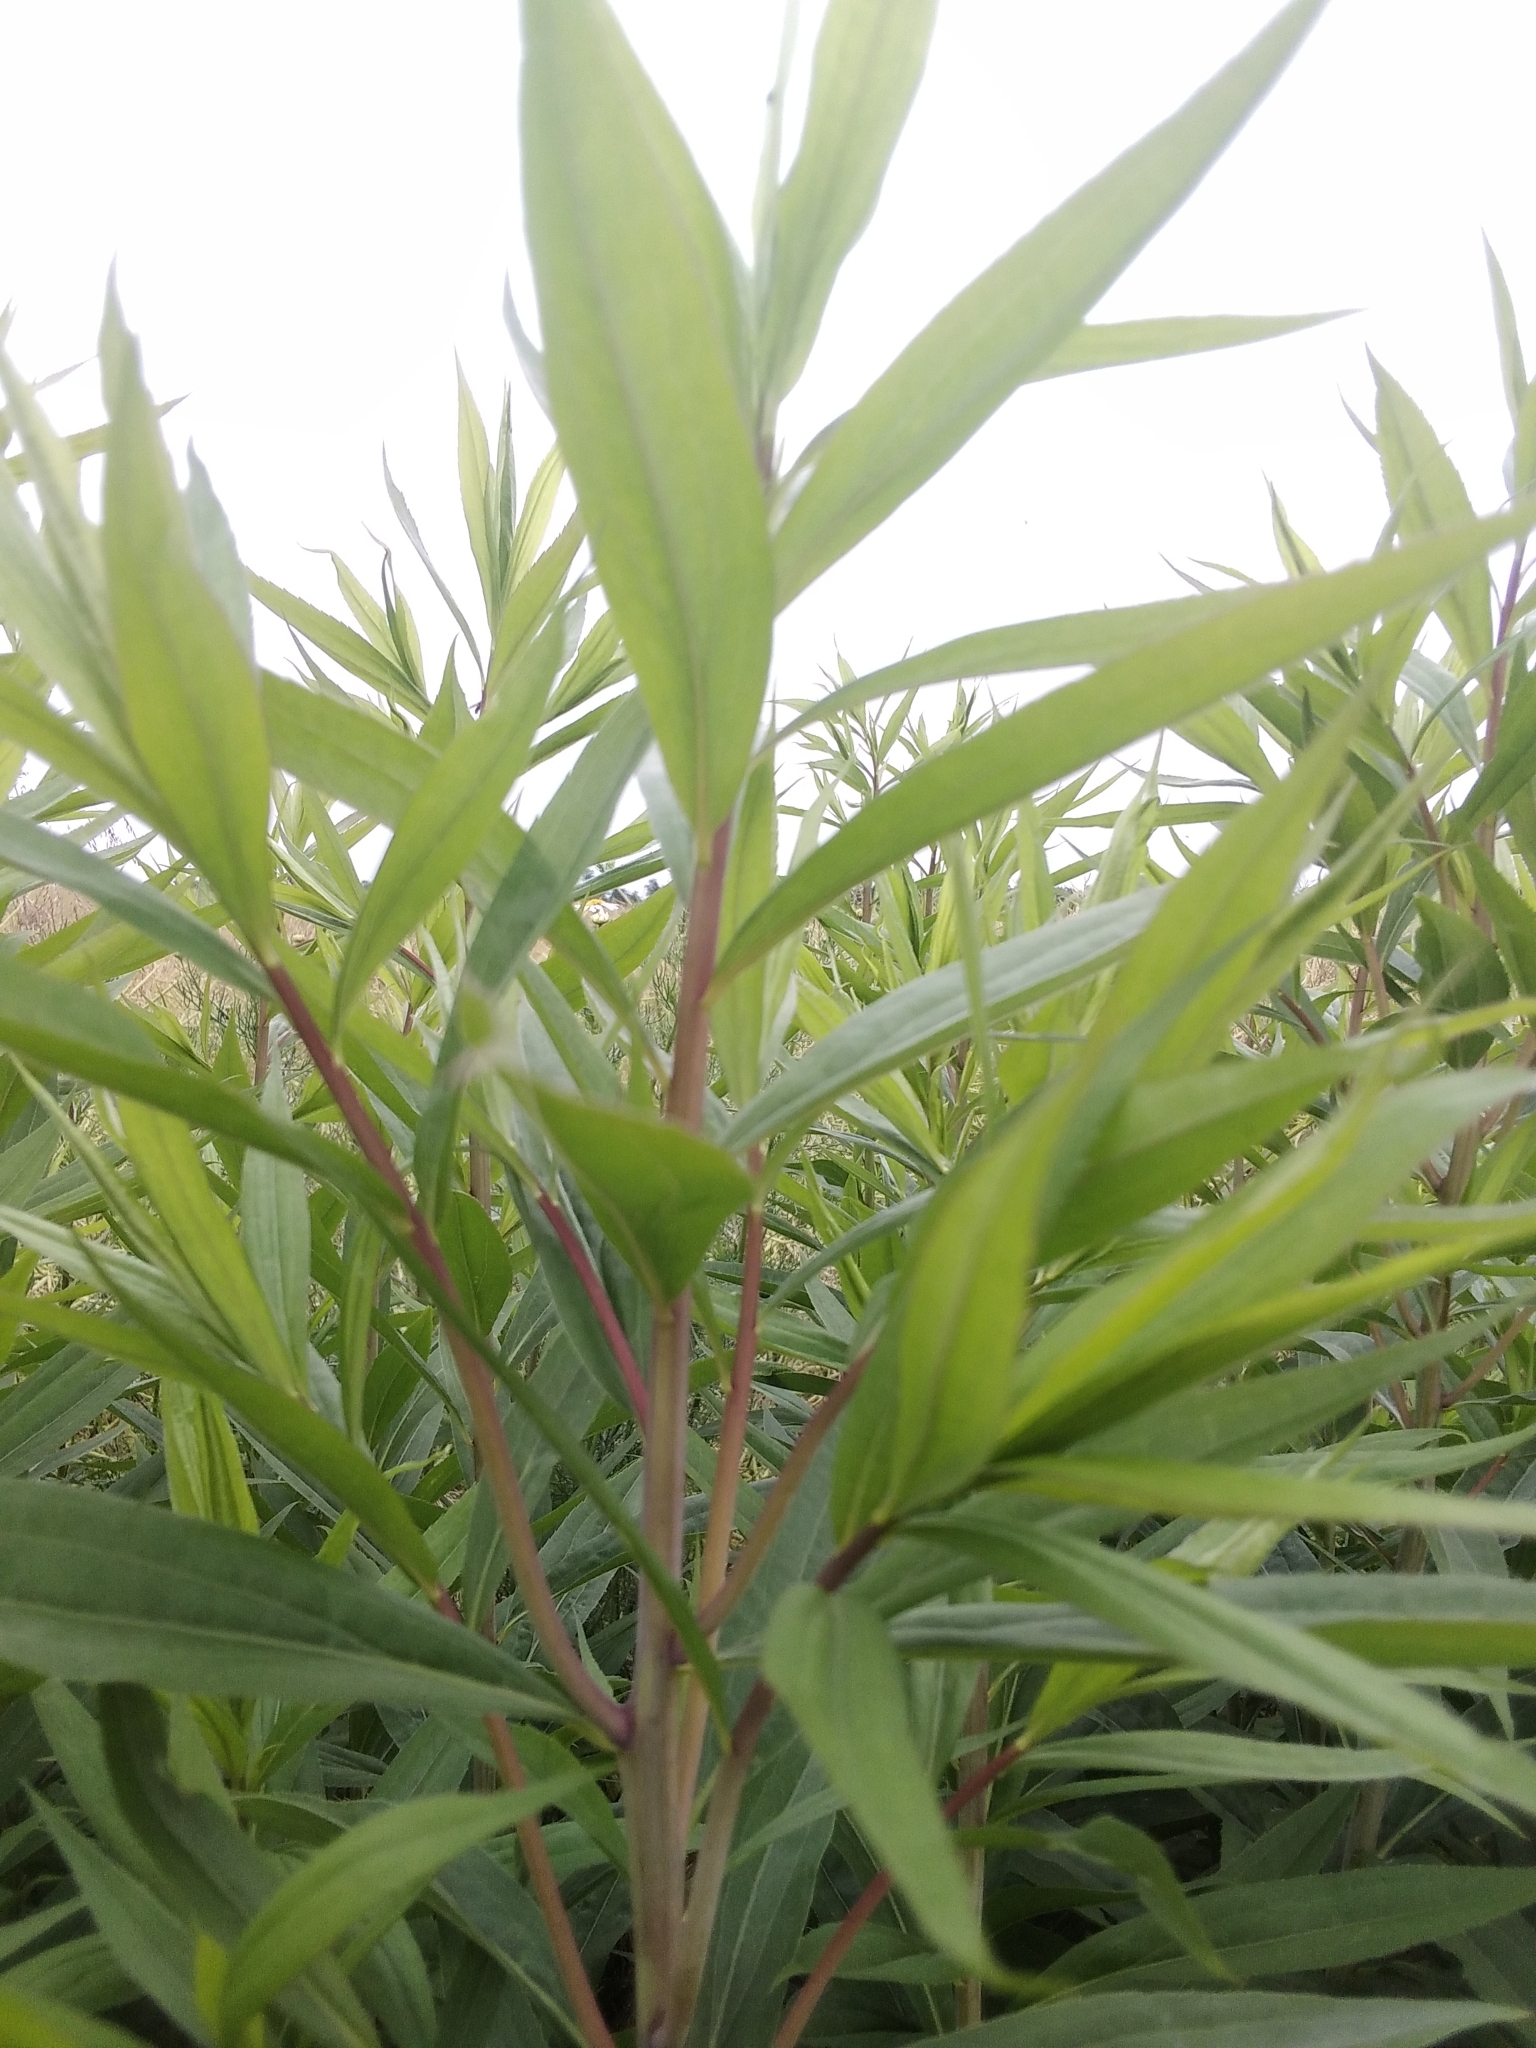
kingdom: Plantae
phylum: Tracheophyta
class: Magnoliopsida
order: Asterales
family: Asteraceae
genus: Solidago
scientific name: Solidago gigantea
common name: Giant goldenrod
